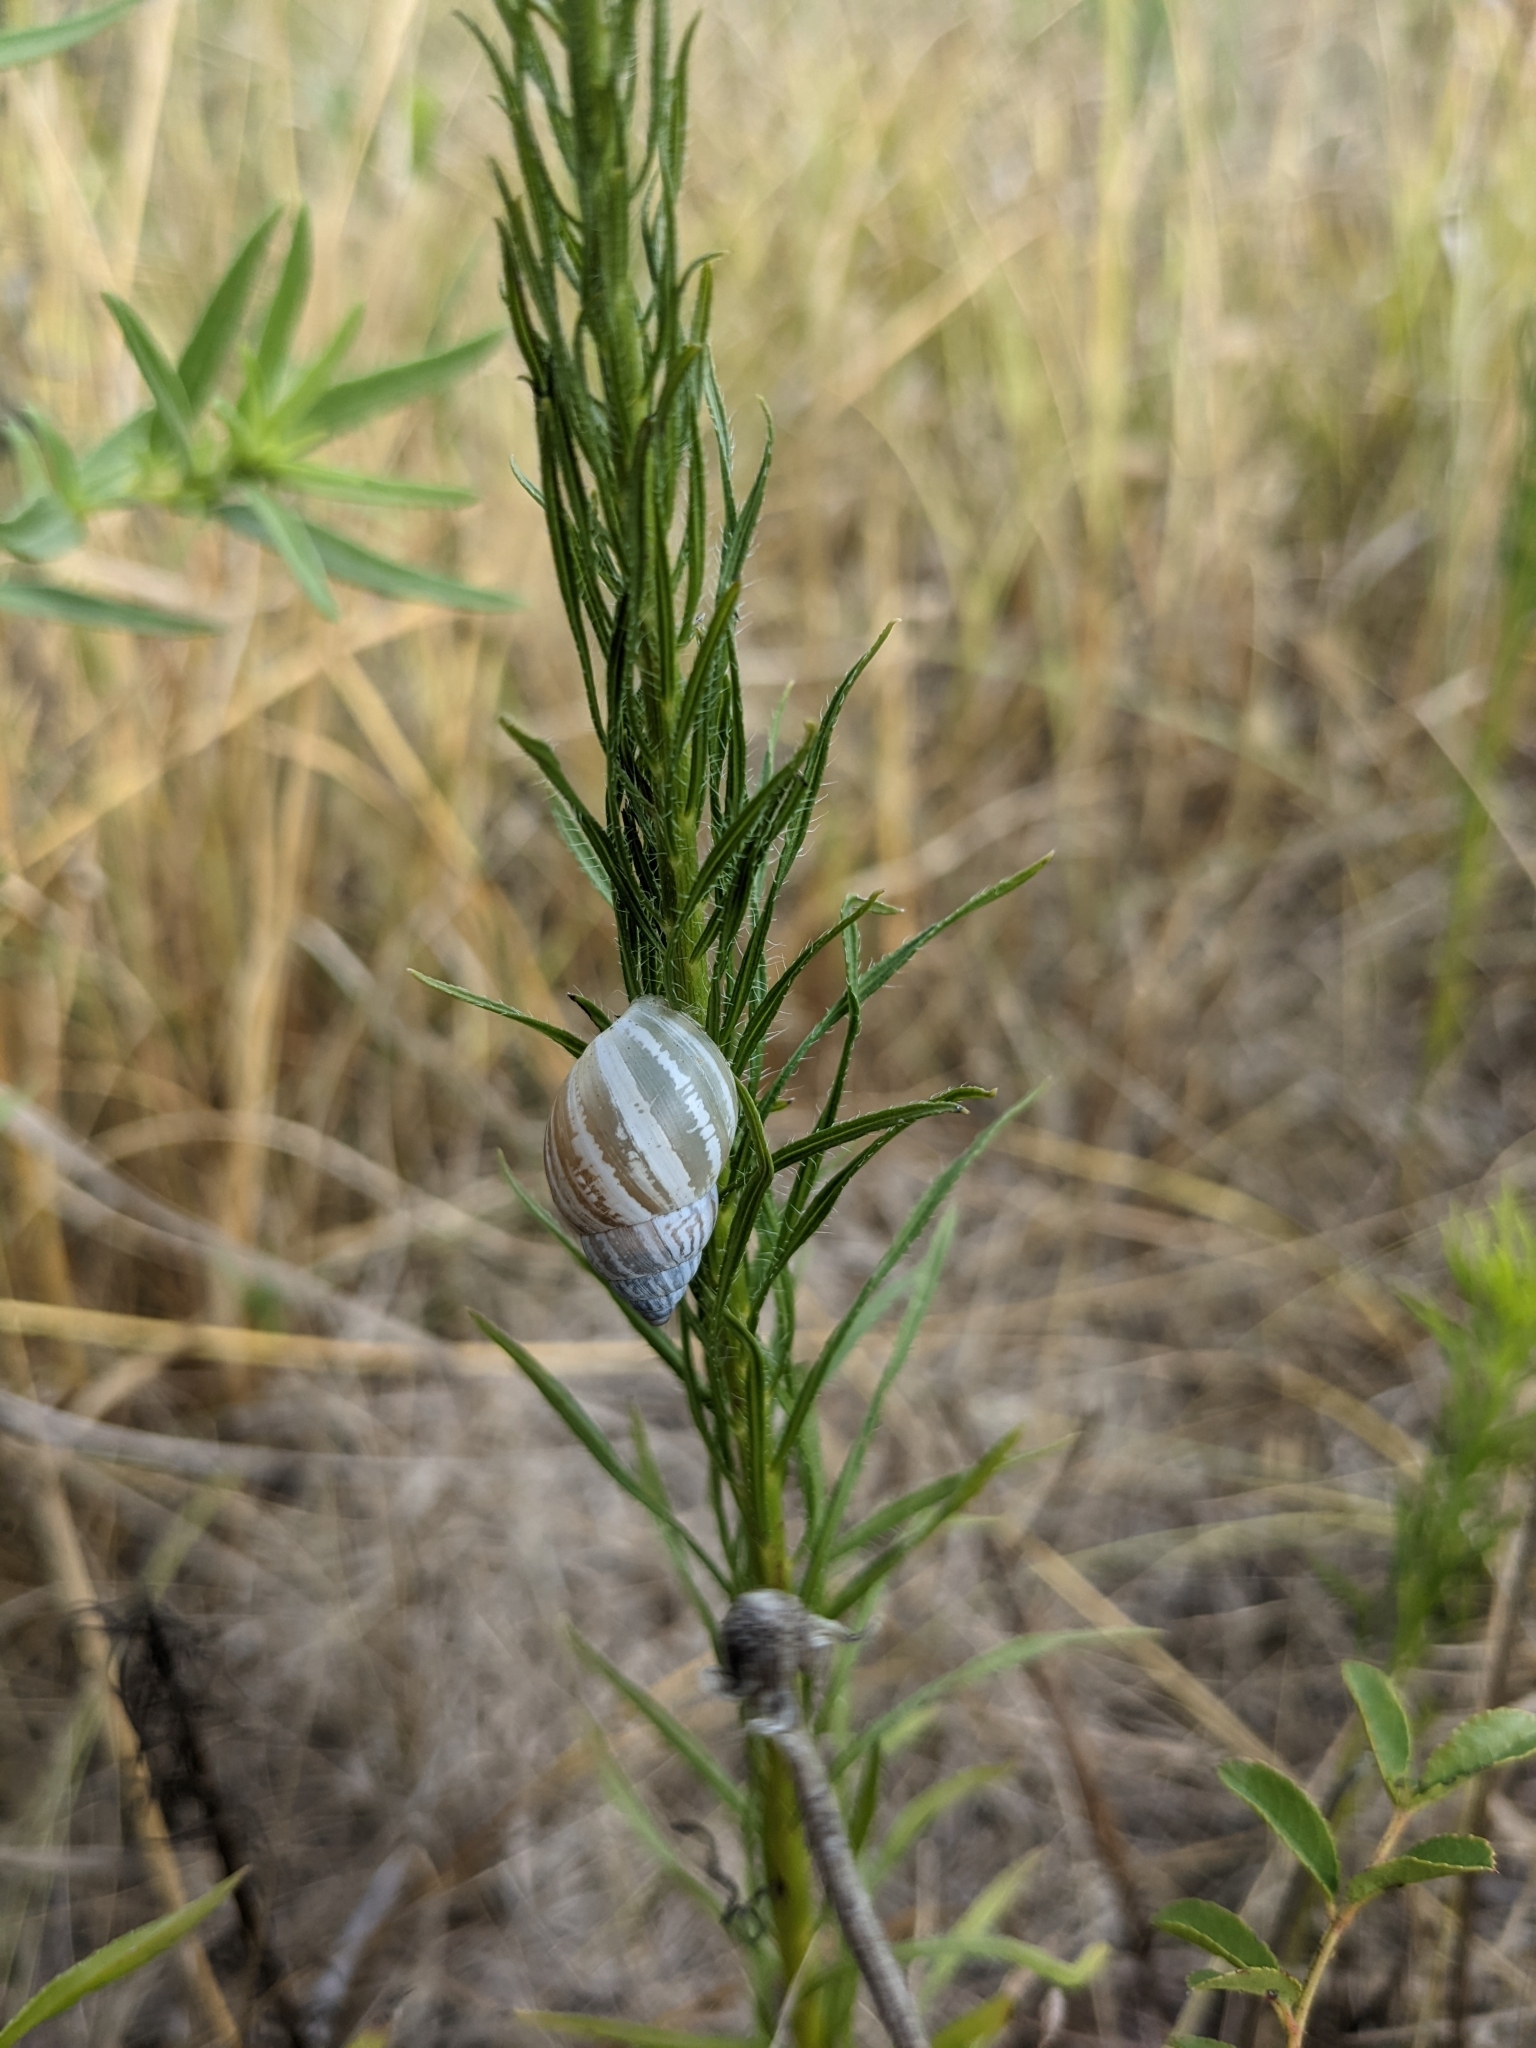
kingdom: Animalia
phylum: Mollusca
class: Gastropoda
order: Stylommatophora
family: Bulimulidae
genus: Rabdotus
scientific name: Rabdotus dealbatus
